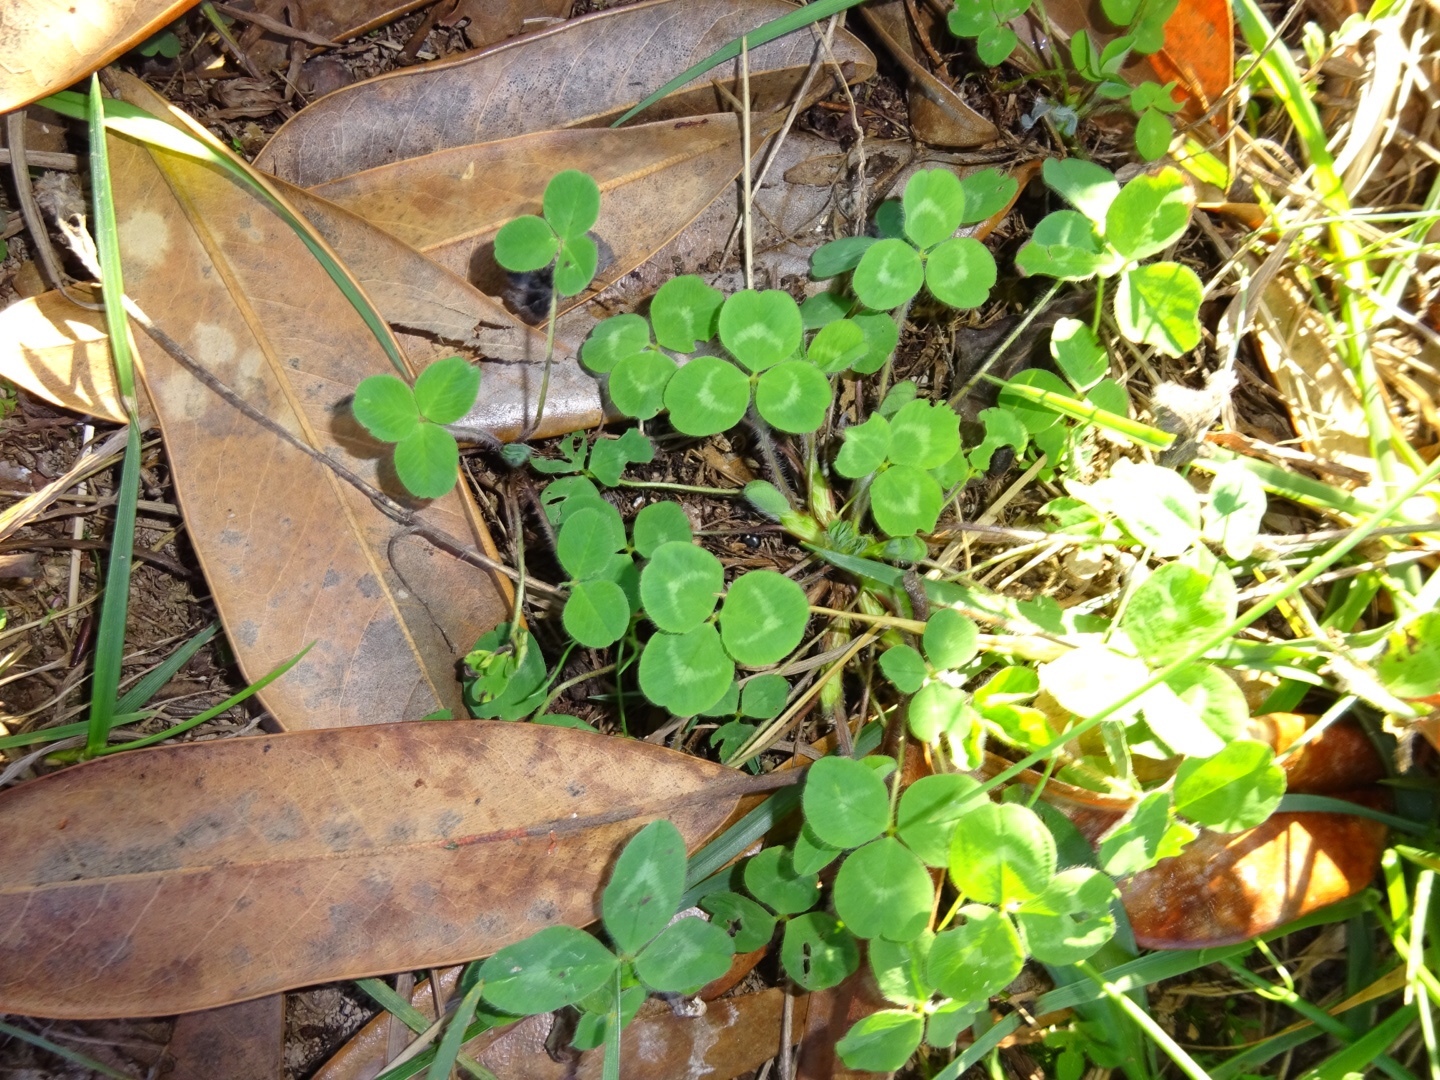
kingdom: Plantae
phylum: Tracheophyta
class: Magnoliopsida
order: Fabales
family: Fabaceae
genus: Trifolium
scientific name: Trifolium pratense
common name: Red clover
